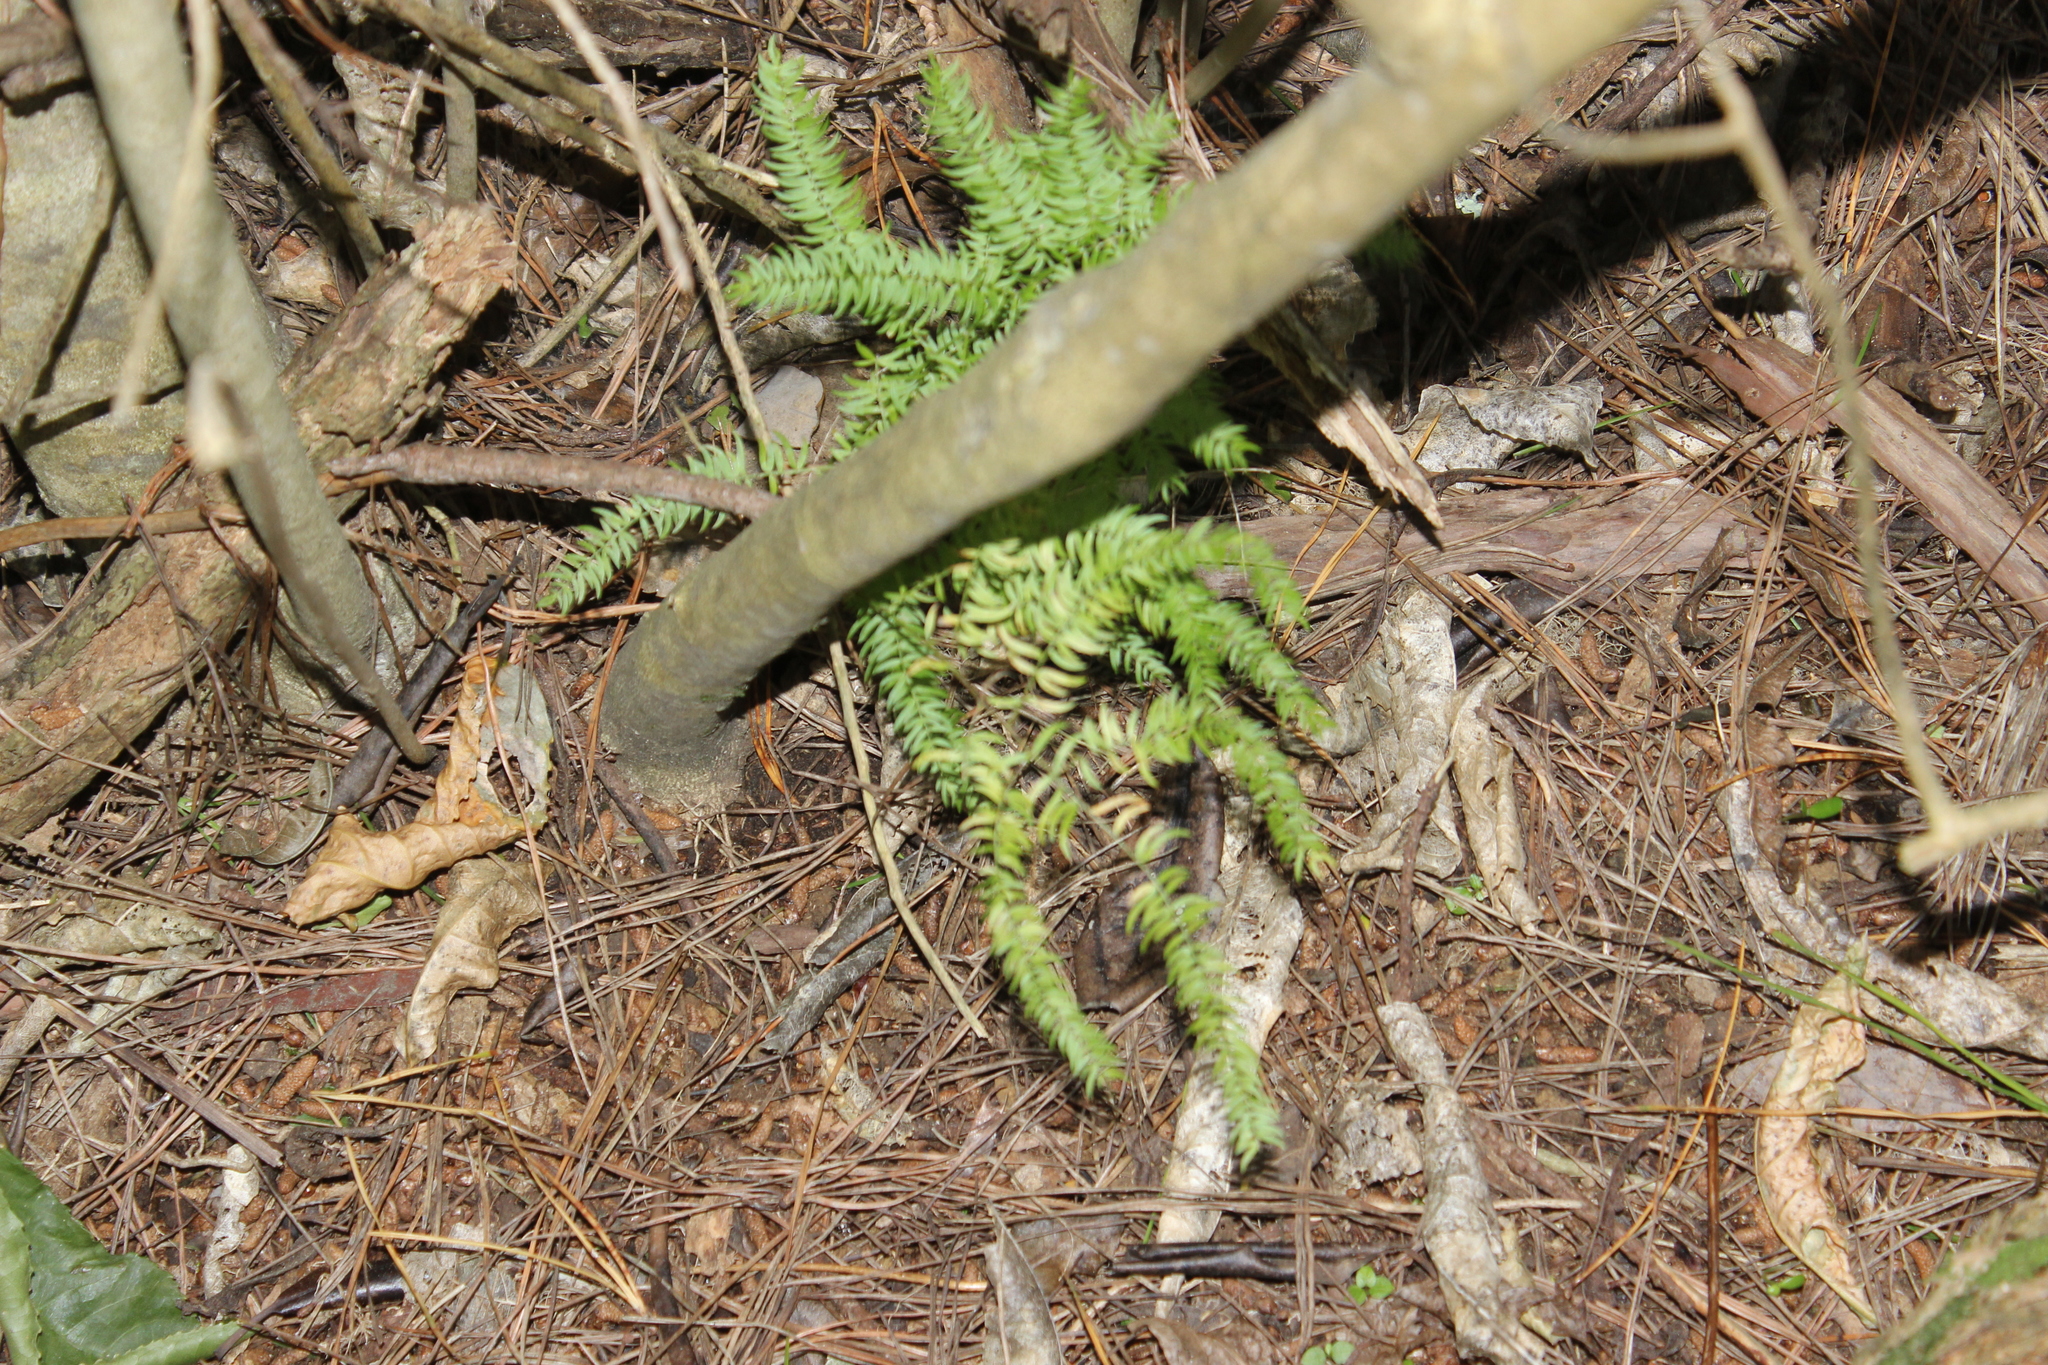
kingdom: Plantae
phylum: Tracheophyta
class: Liliopsida
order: Asparagales
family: Asparagaceae
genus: Asparagus
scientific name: Asparagus scandens
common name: Asparagus-fern
